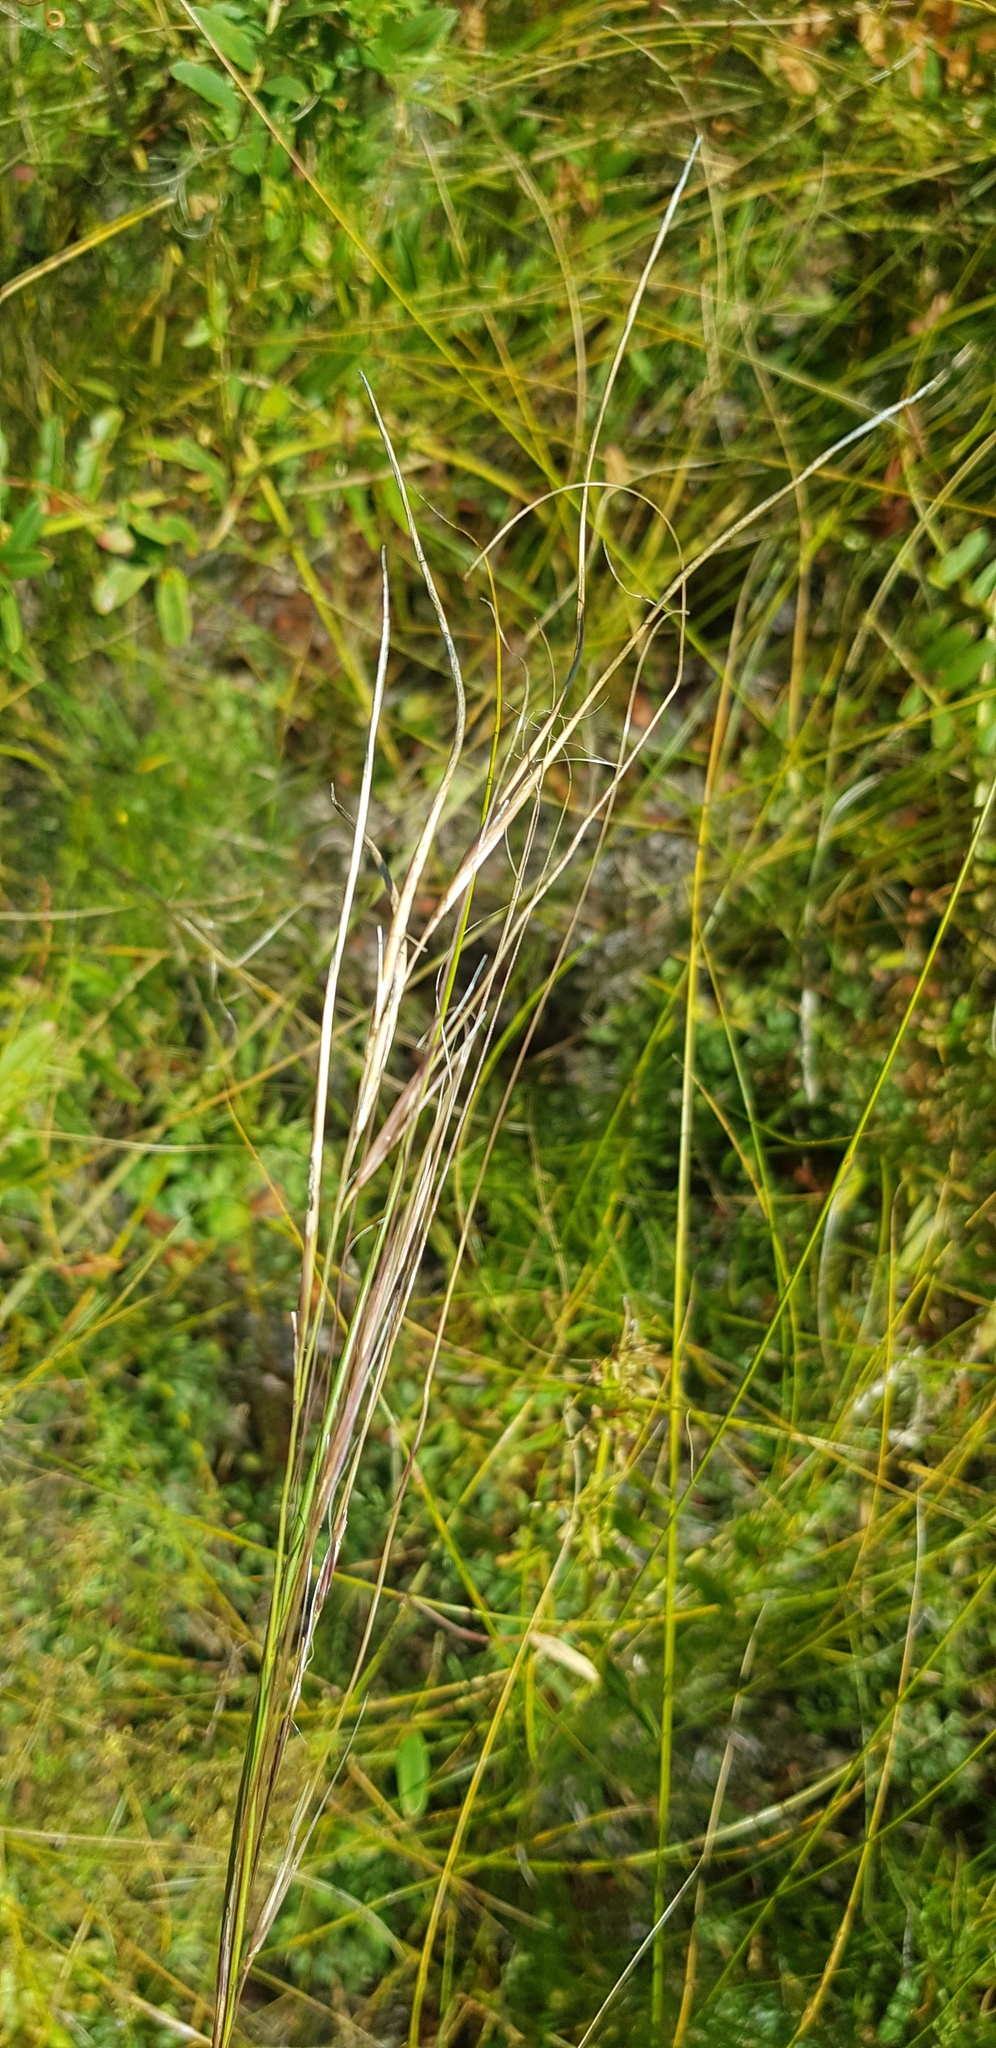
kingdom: Plantae
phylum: Tracheophyta
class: Liliopsida
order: Poales
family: Poaceae
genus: Stipa
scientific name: Stipa krylovii
